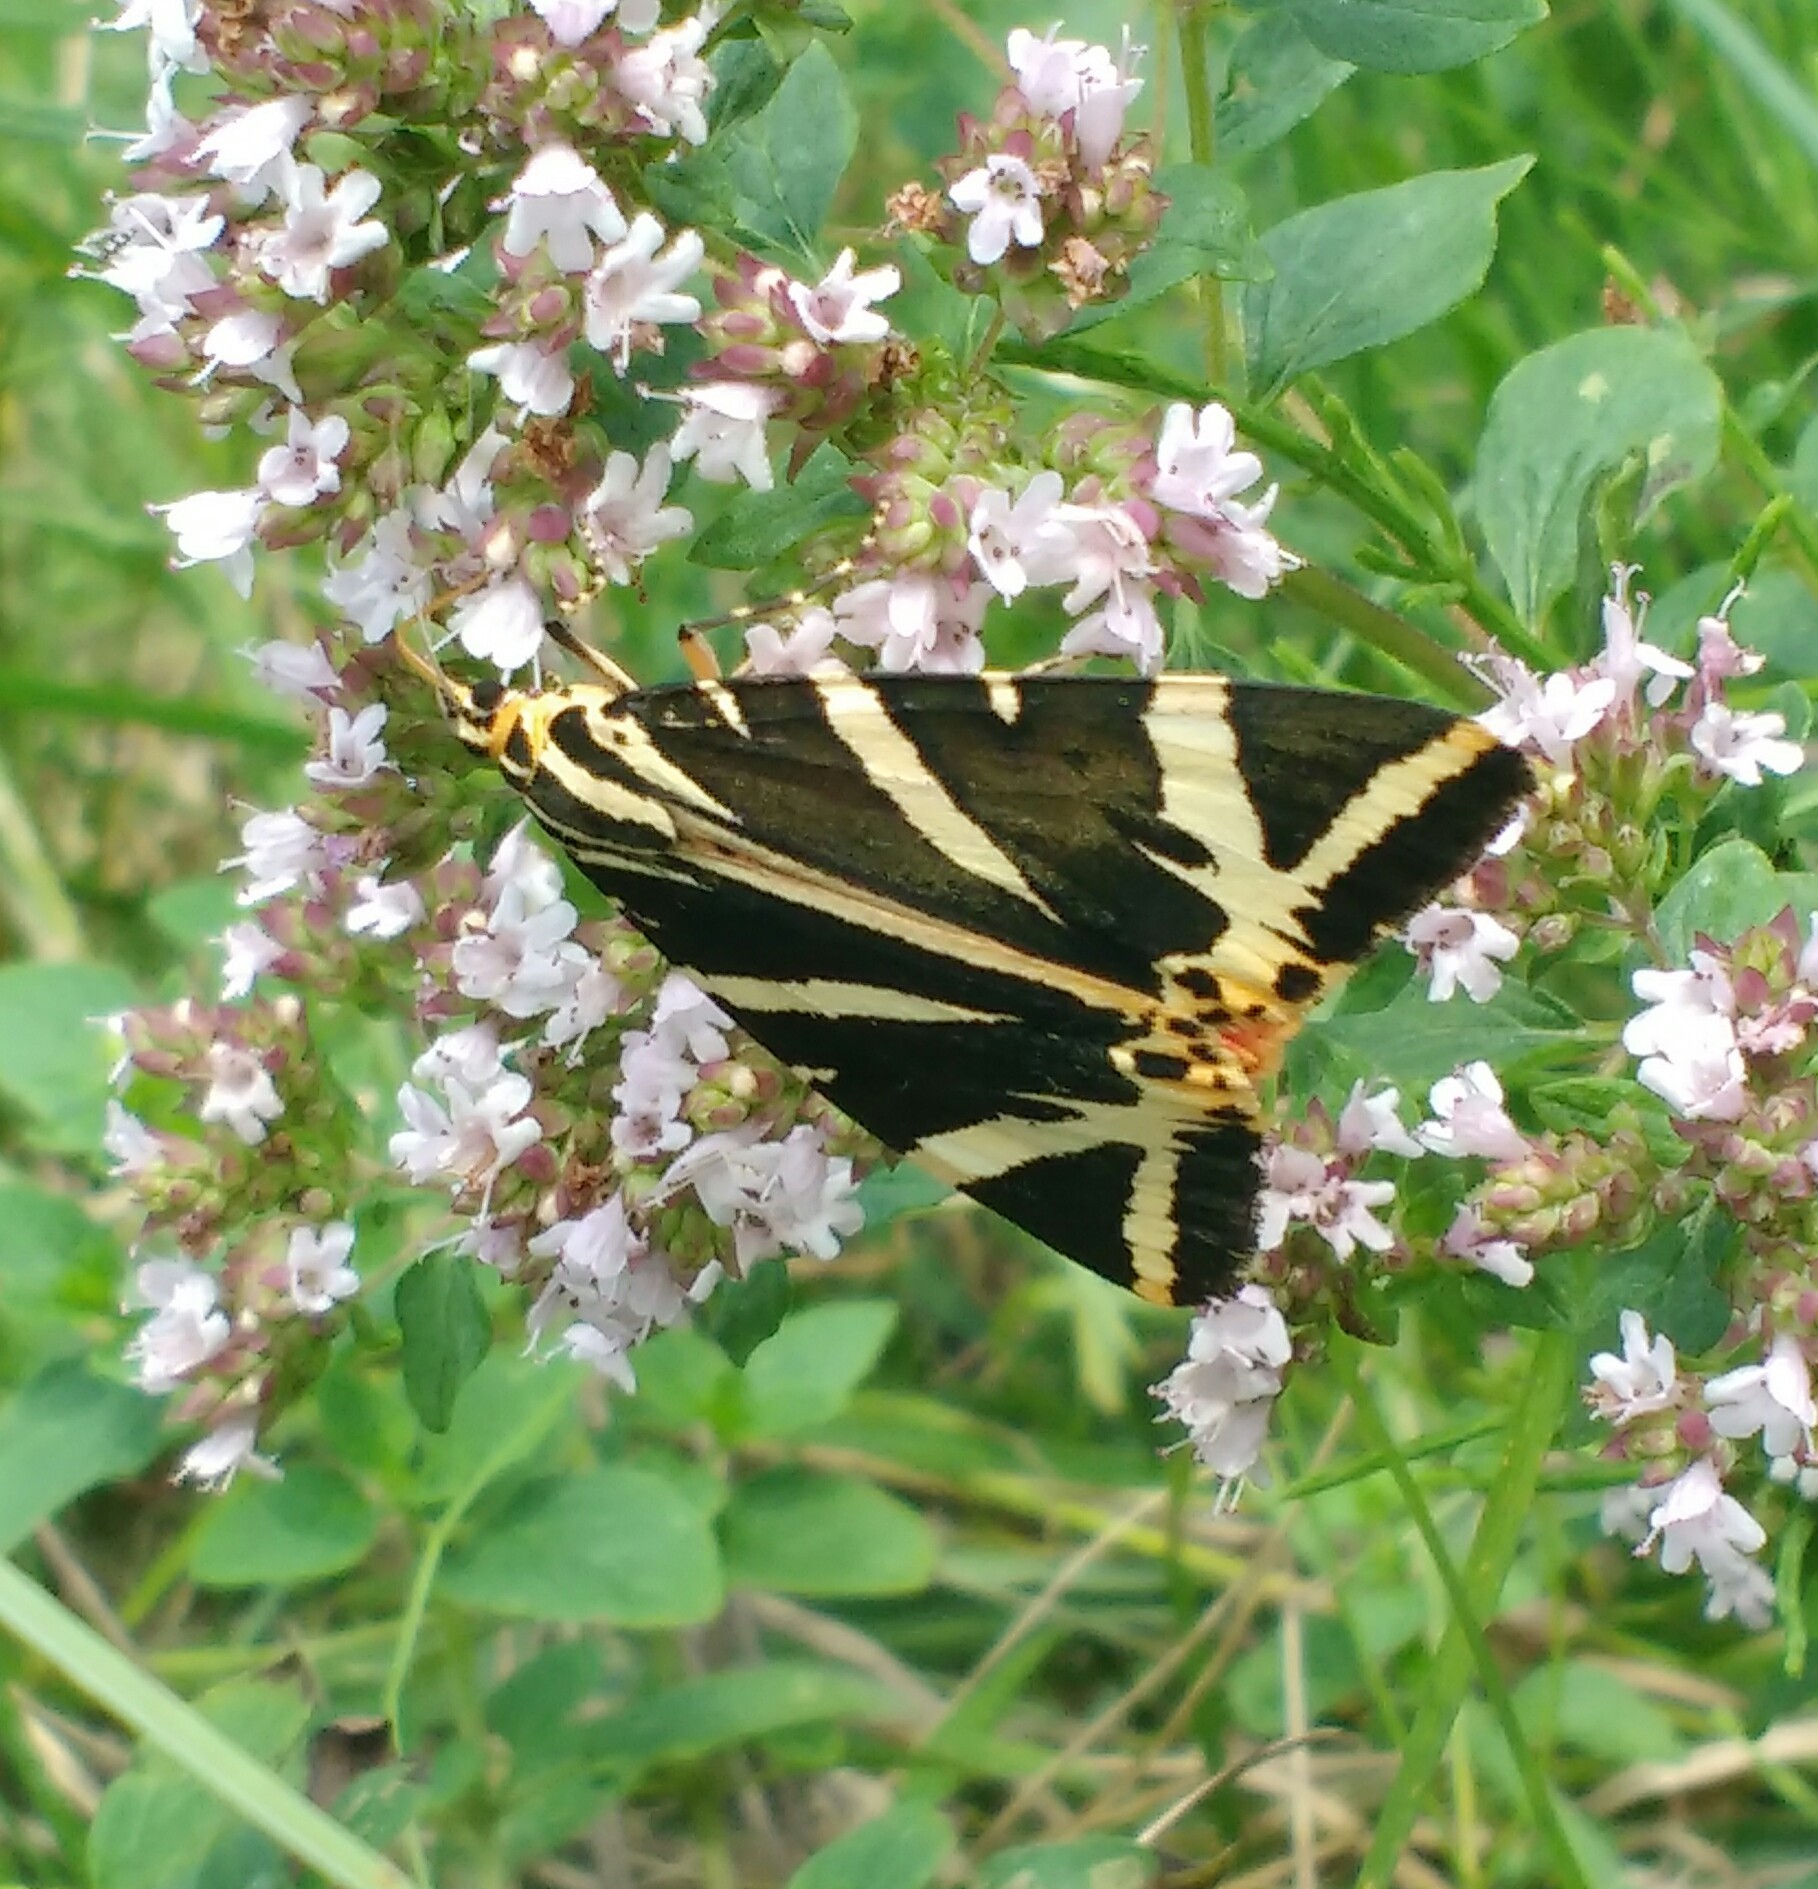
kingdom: Animalia
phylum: Arthropoda
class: Insecta
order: Lepidoptera
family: Erebidae
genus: Euplagia
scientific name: Euplagia quadripunctaria
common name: Jersey tiger
